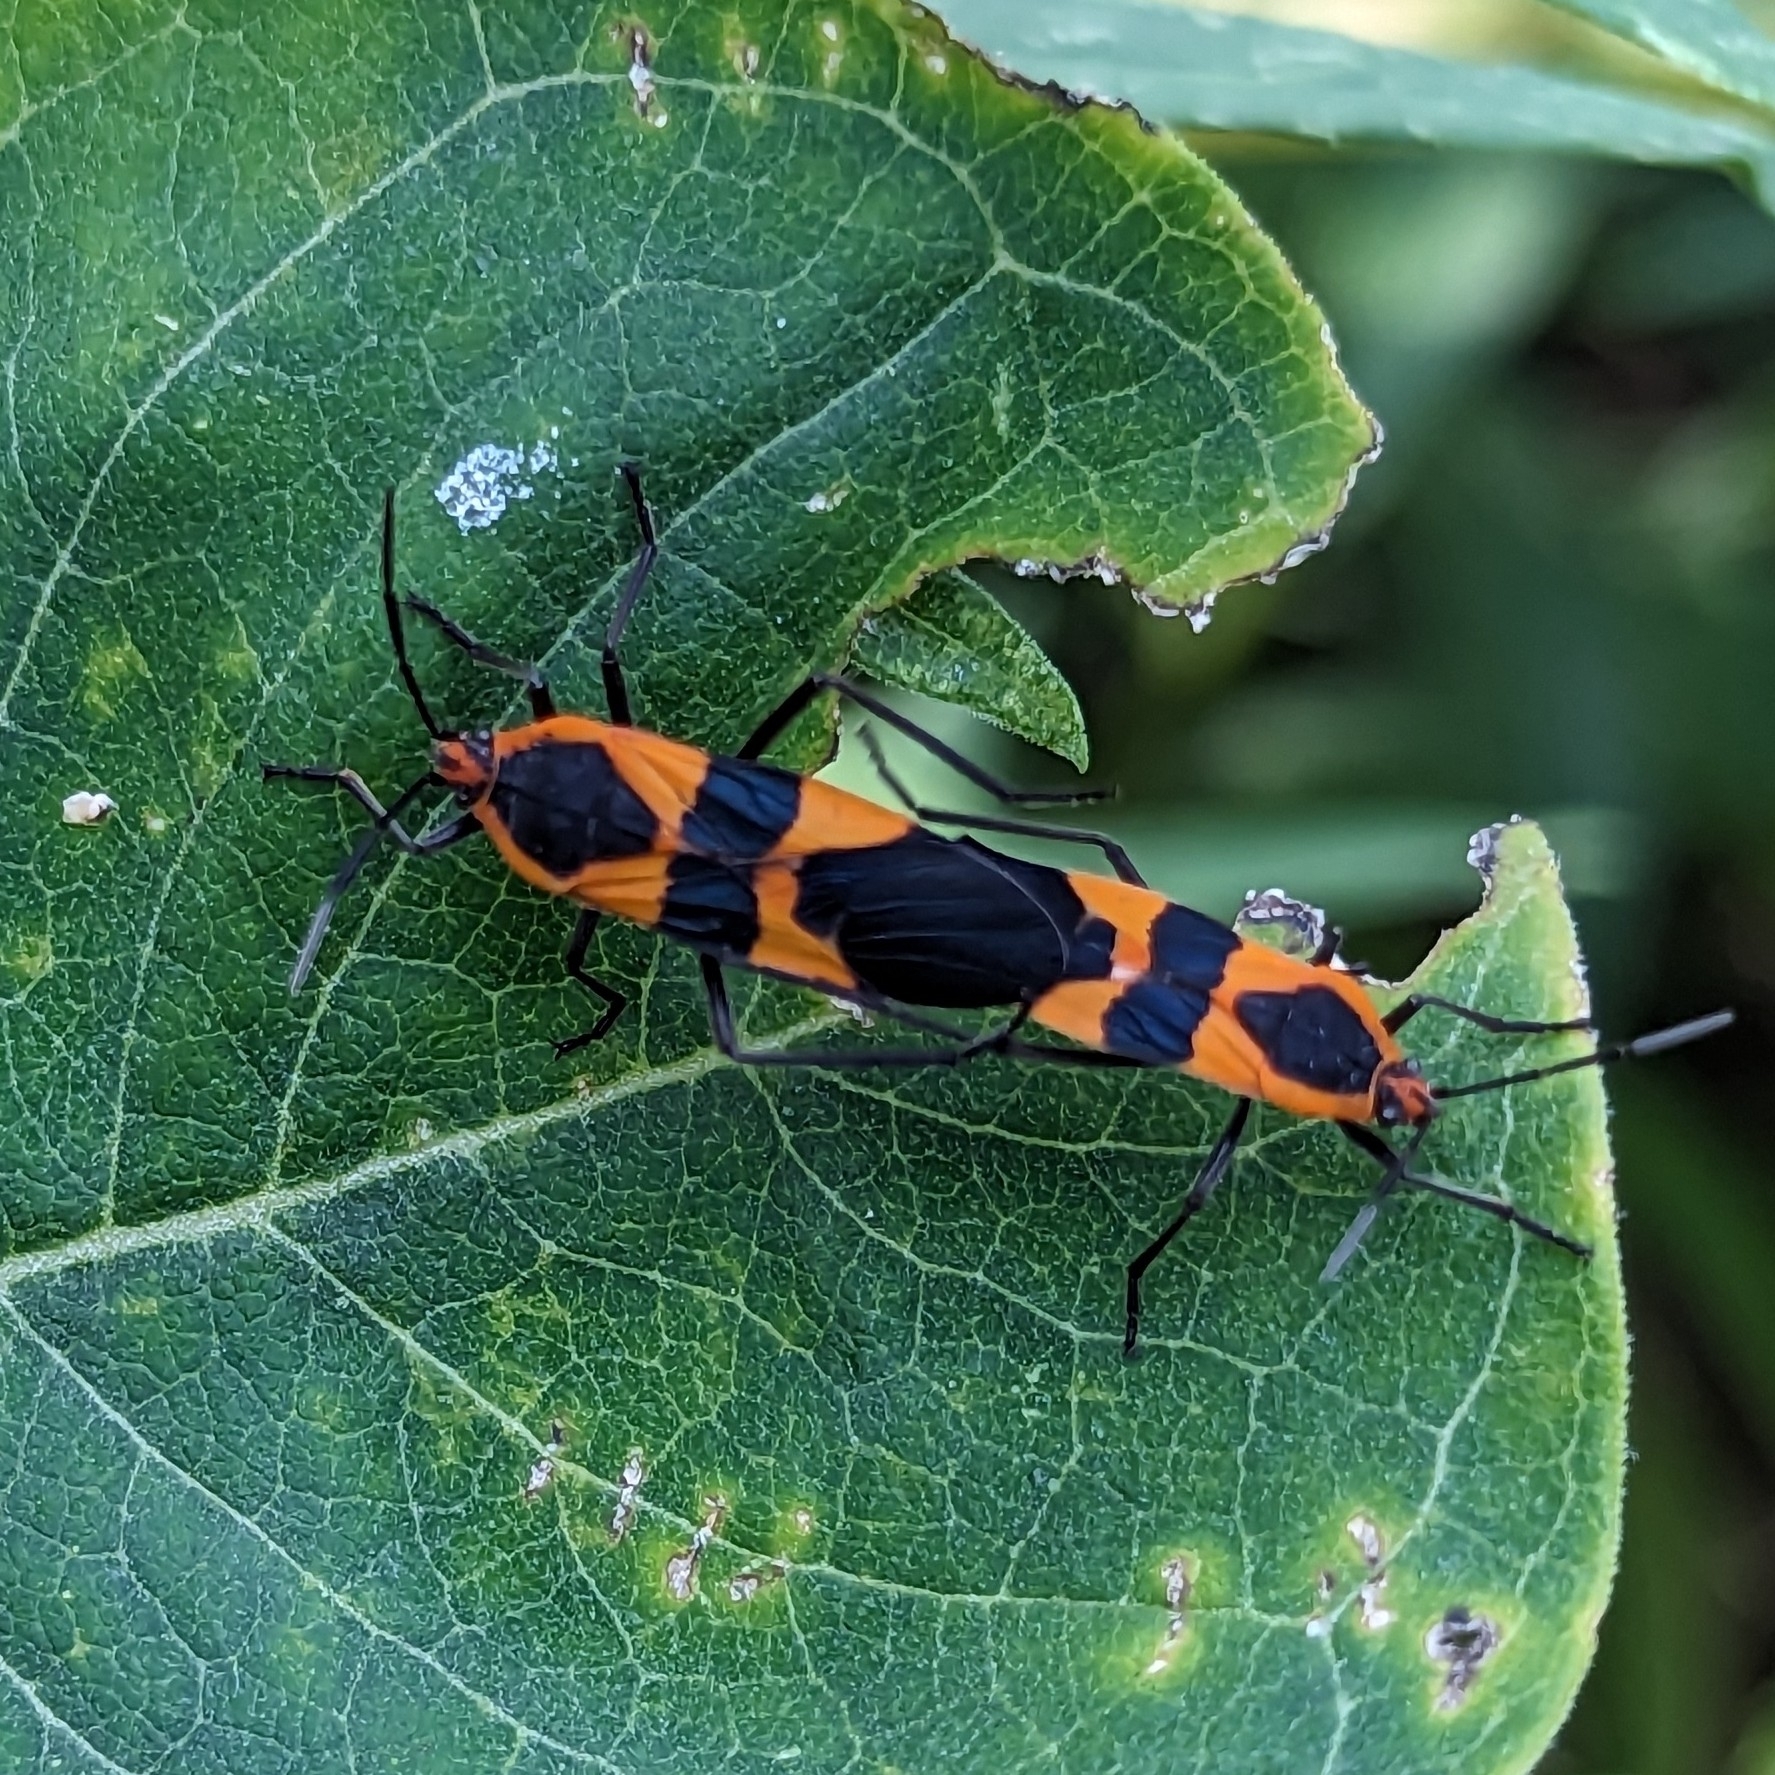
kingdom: Animalia
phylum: Arthropoda
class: Insecta
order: Hemiptera
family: Lygaeidae
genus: Oncopeltus
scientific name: Oncopeltus fasciatus
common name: Large milkweed bug
